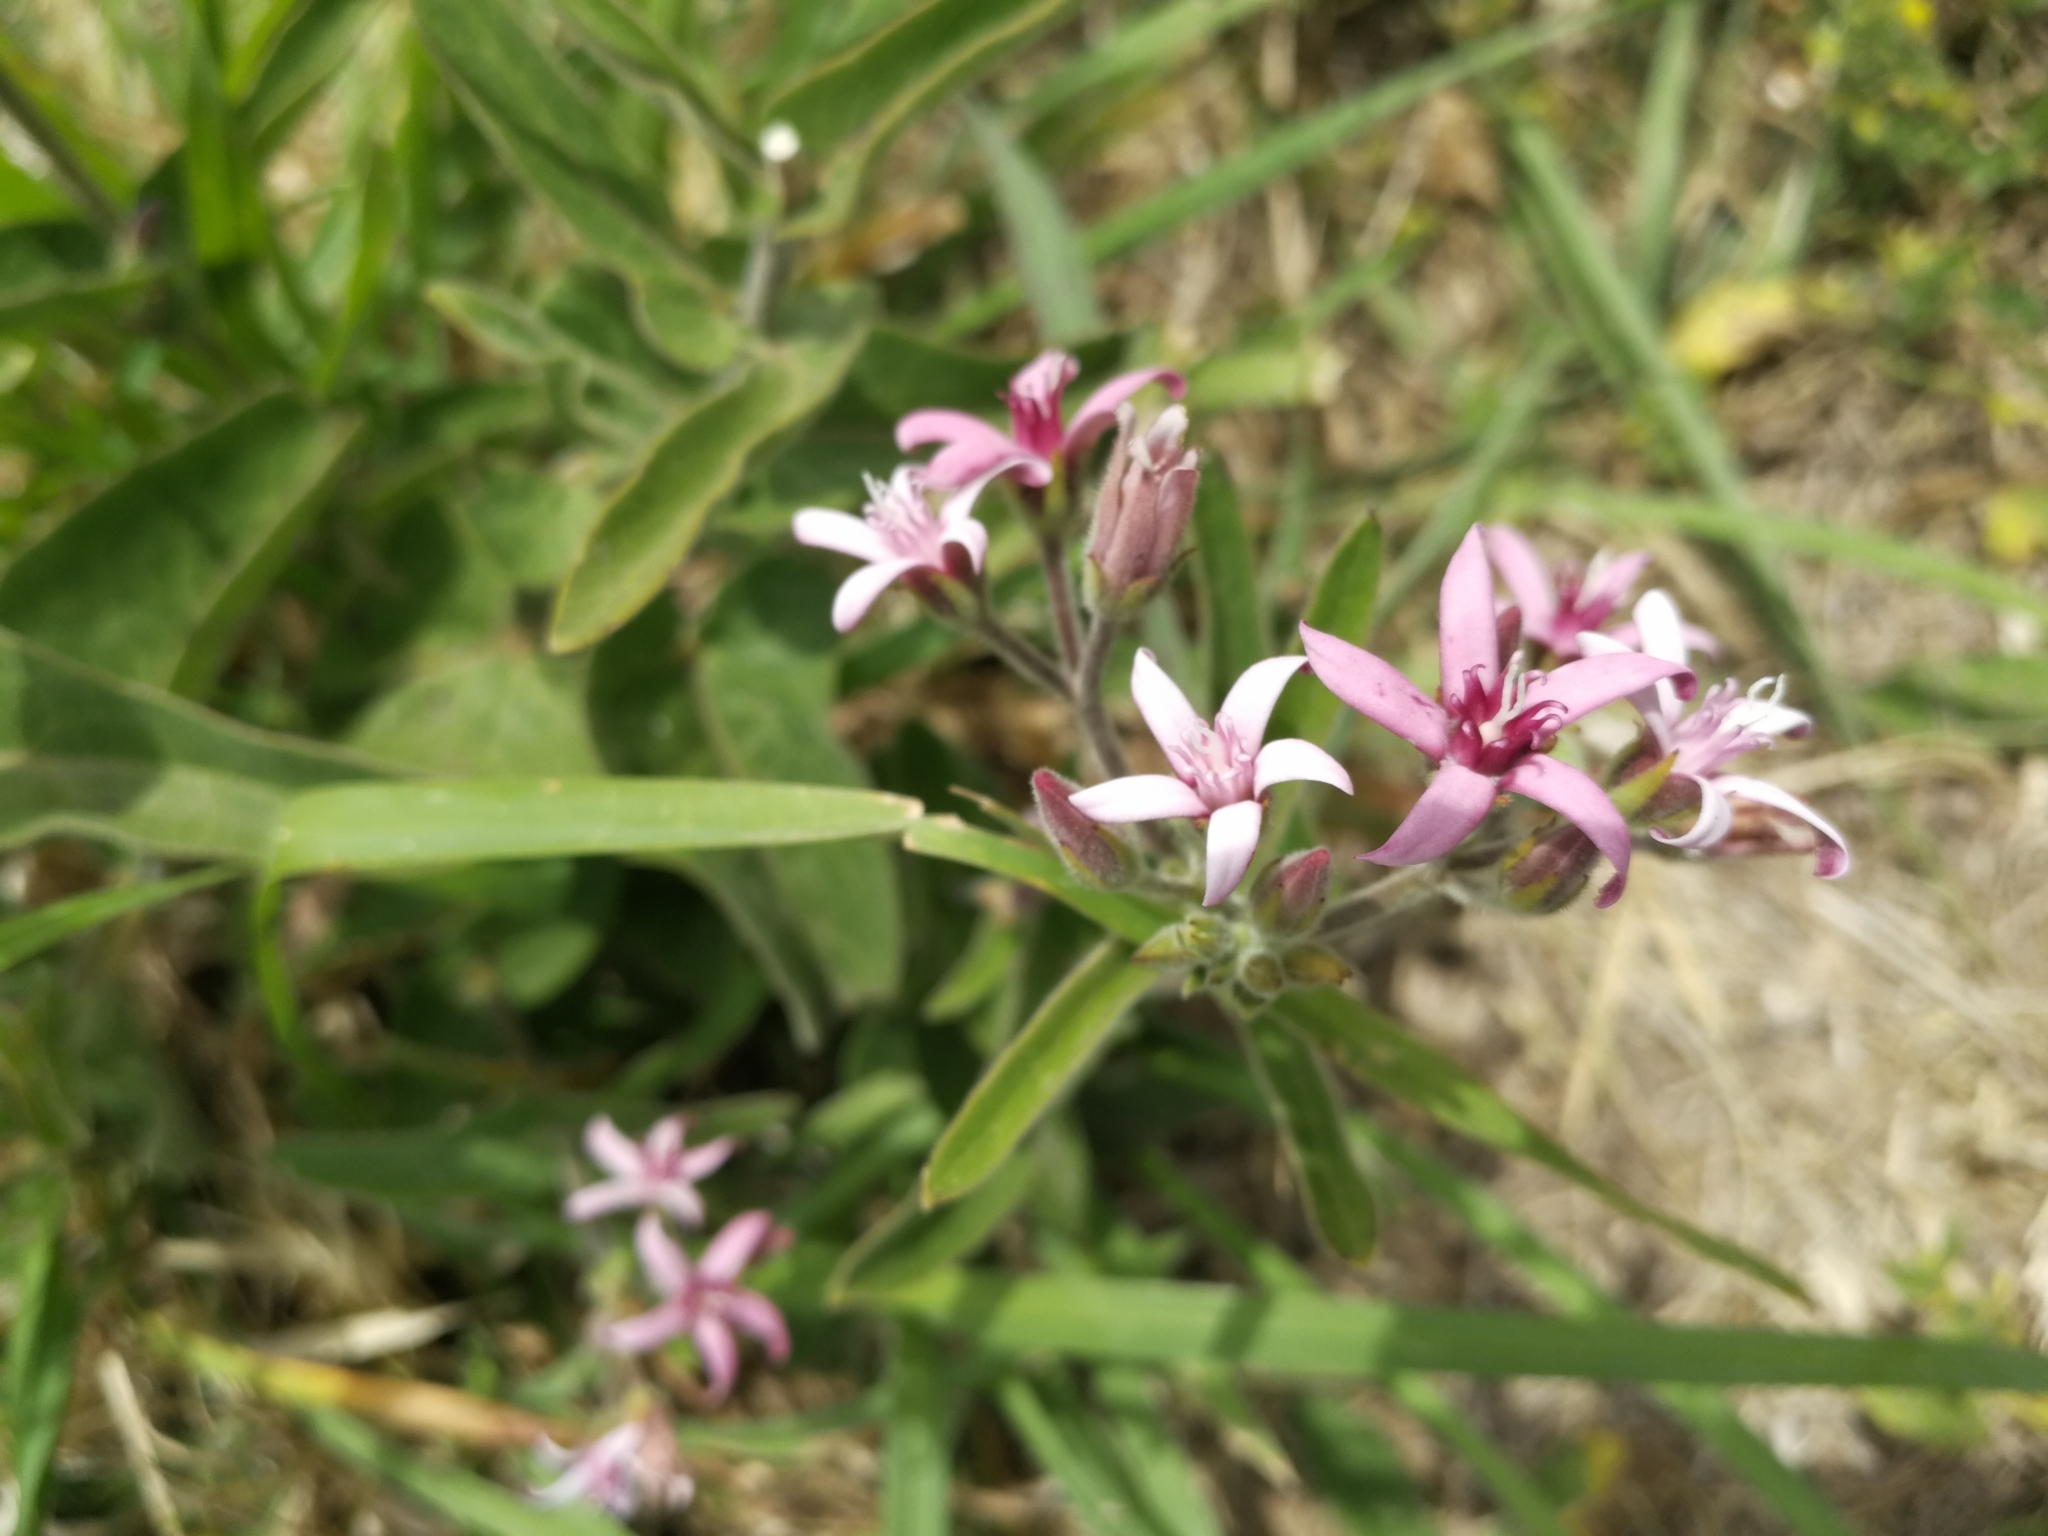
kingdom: Plantae
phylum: Tracheophyta
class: Magnoliopsida
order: Gentianales
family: Apocynaceae
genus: Oxypetalum
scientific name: Oxypetalum solanoides
